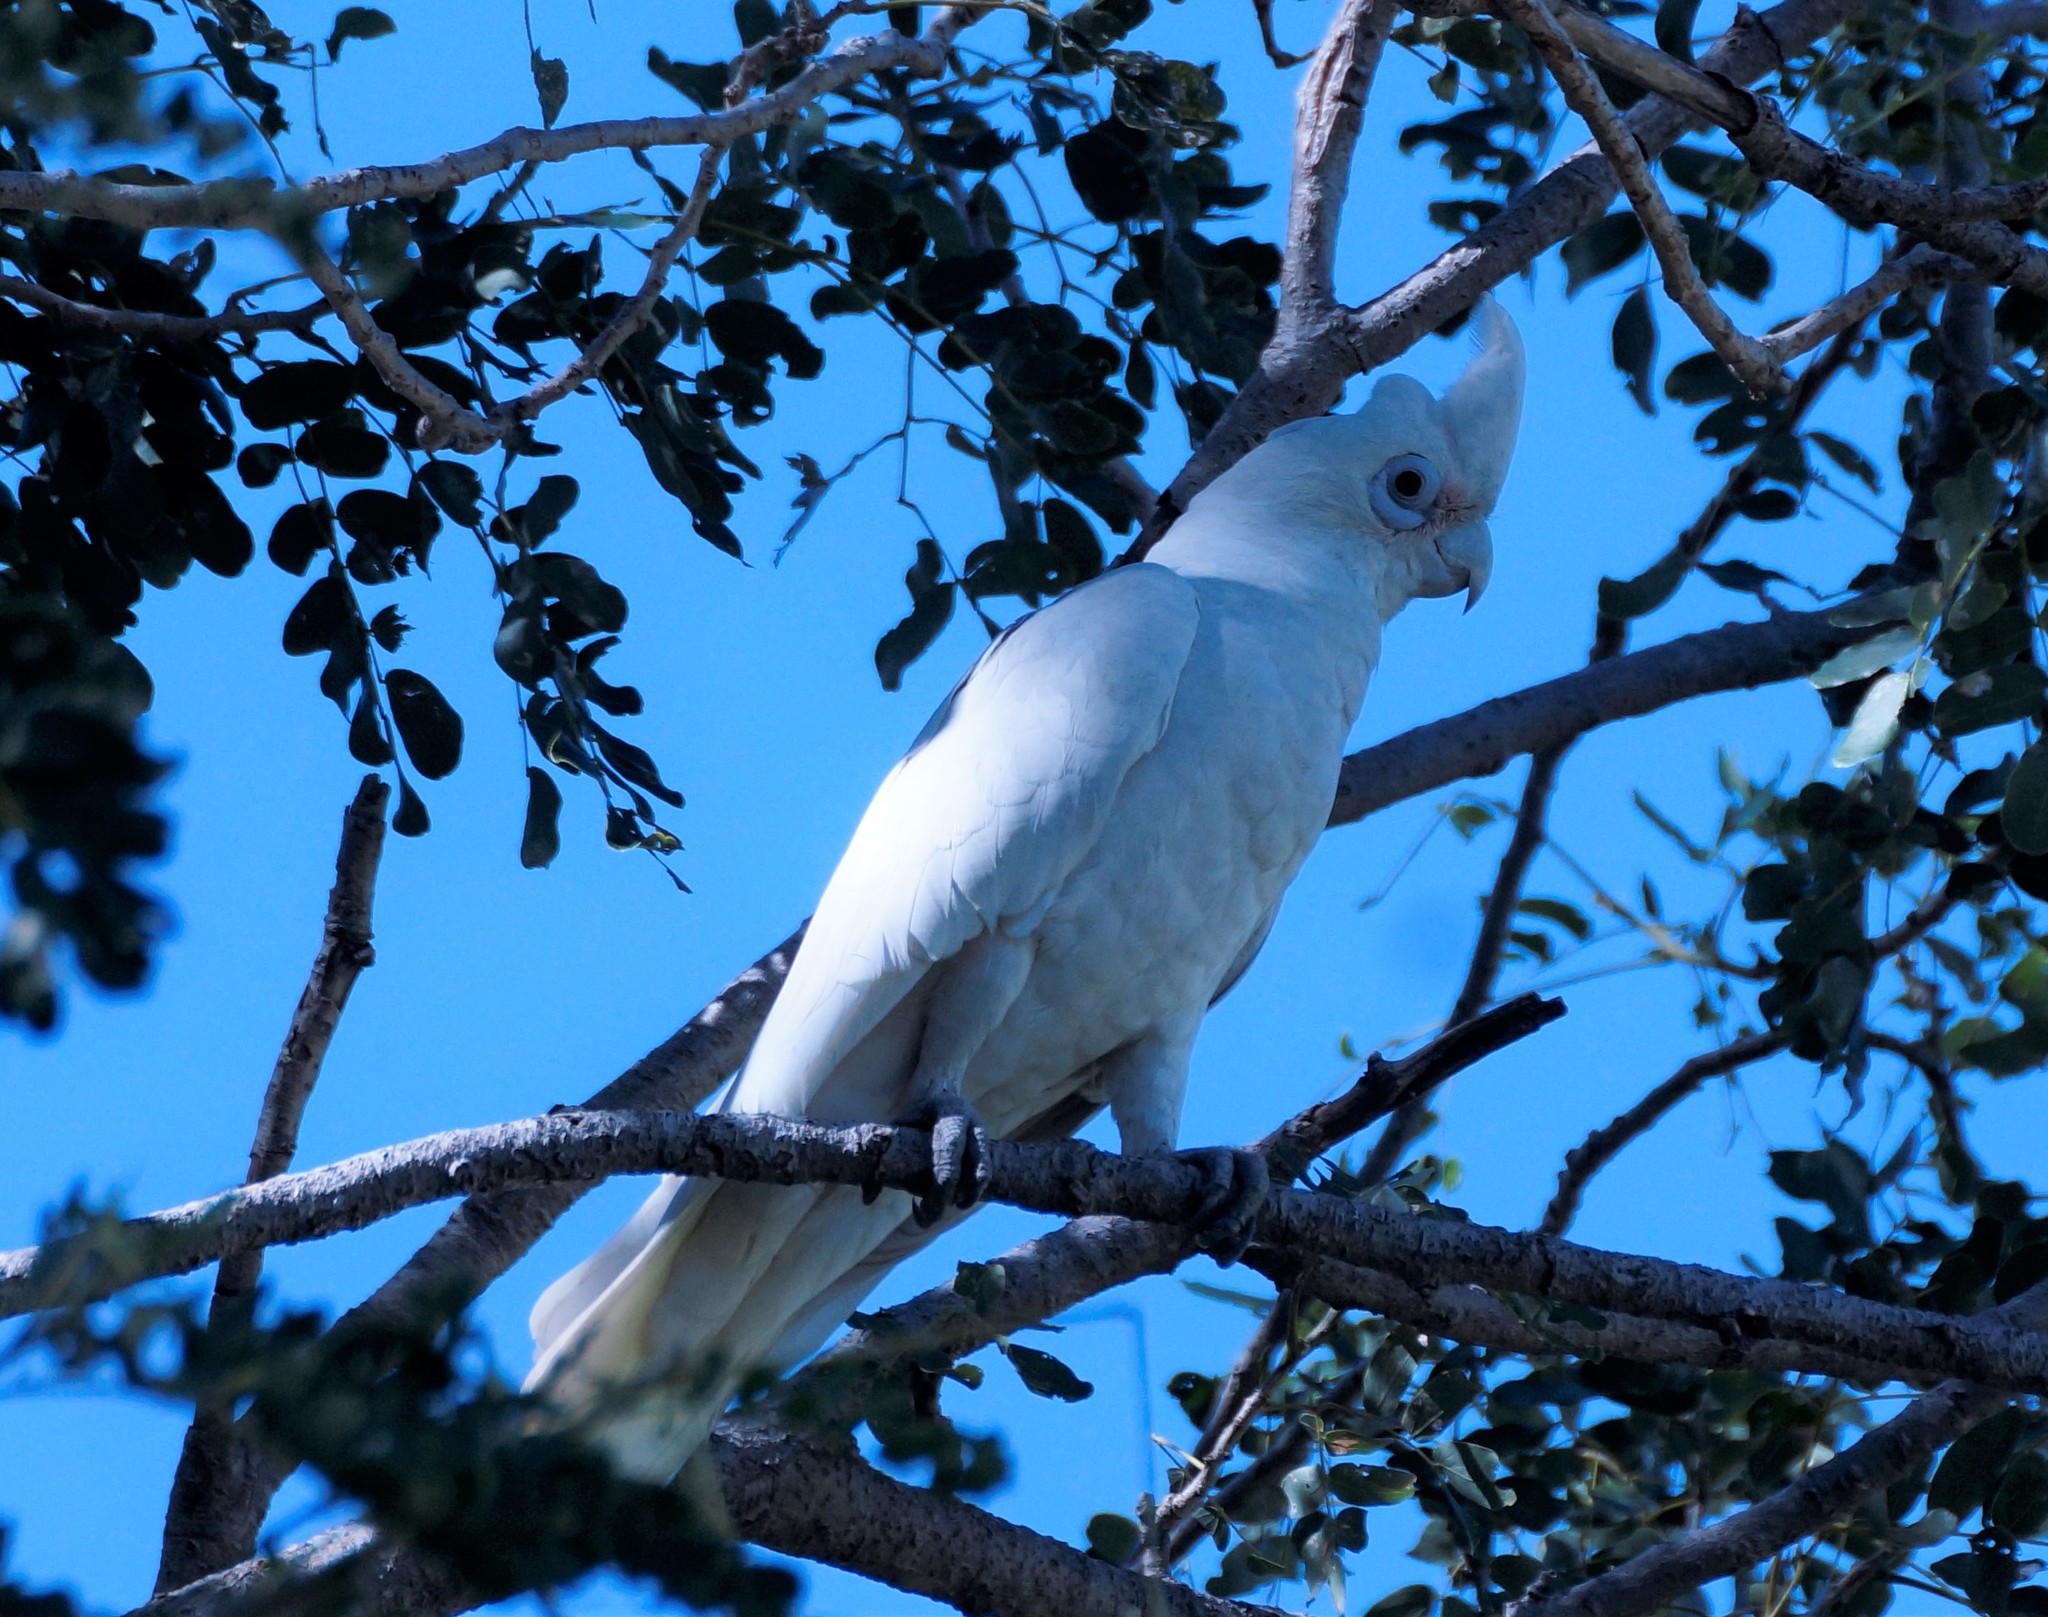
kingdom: Animalia
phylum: Chordata
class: Aves
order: Psittaciformes
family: Psittacidae
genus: Cacatua
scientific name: Cacatua sanguinea
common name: Little corella
